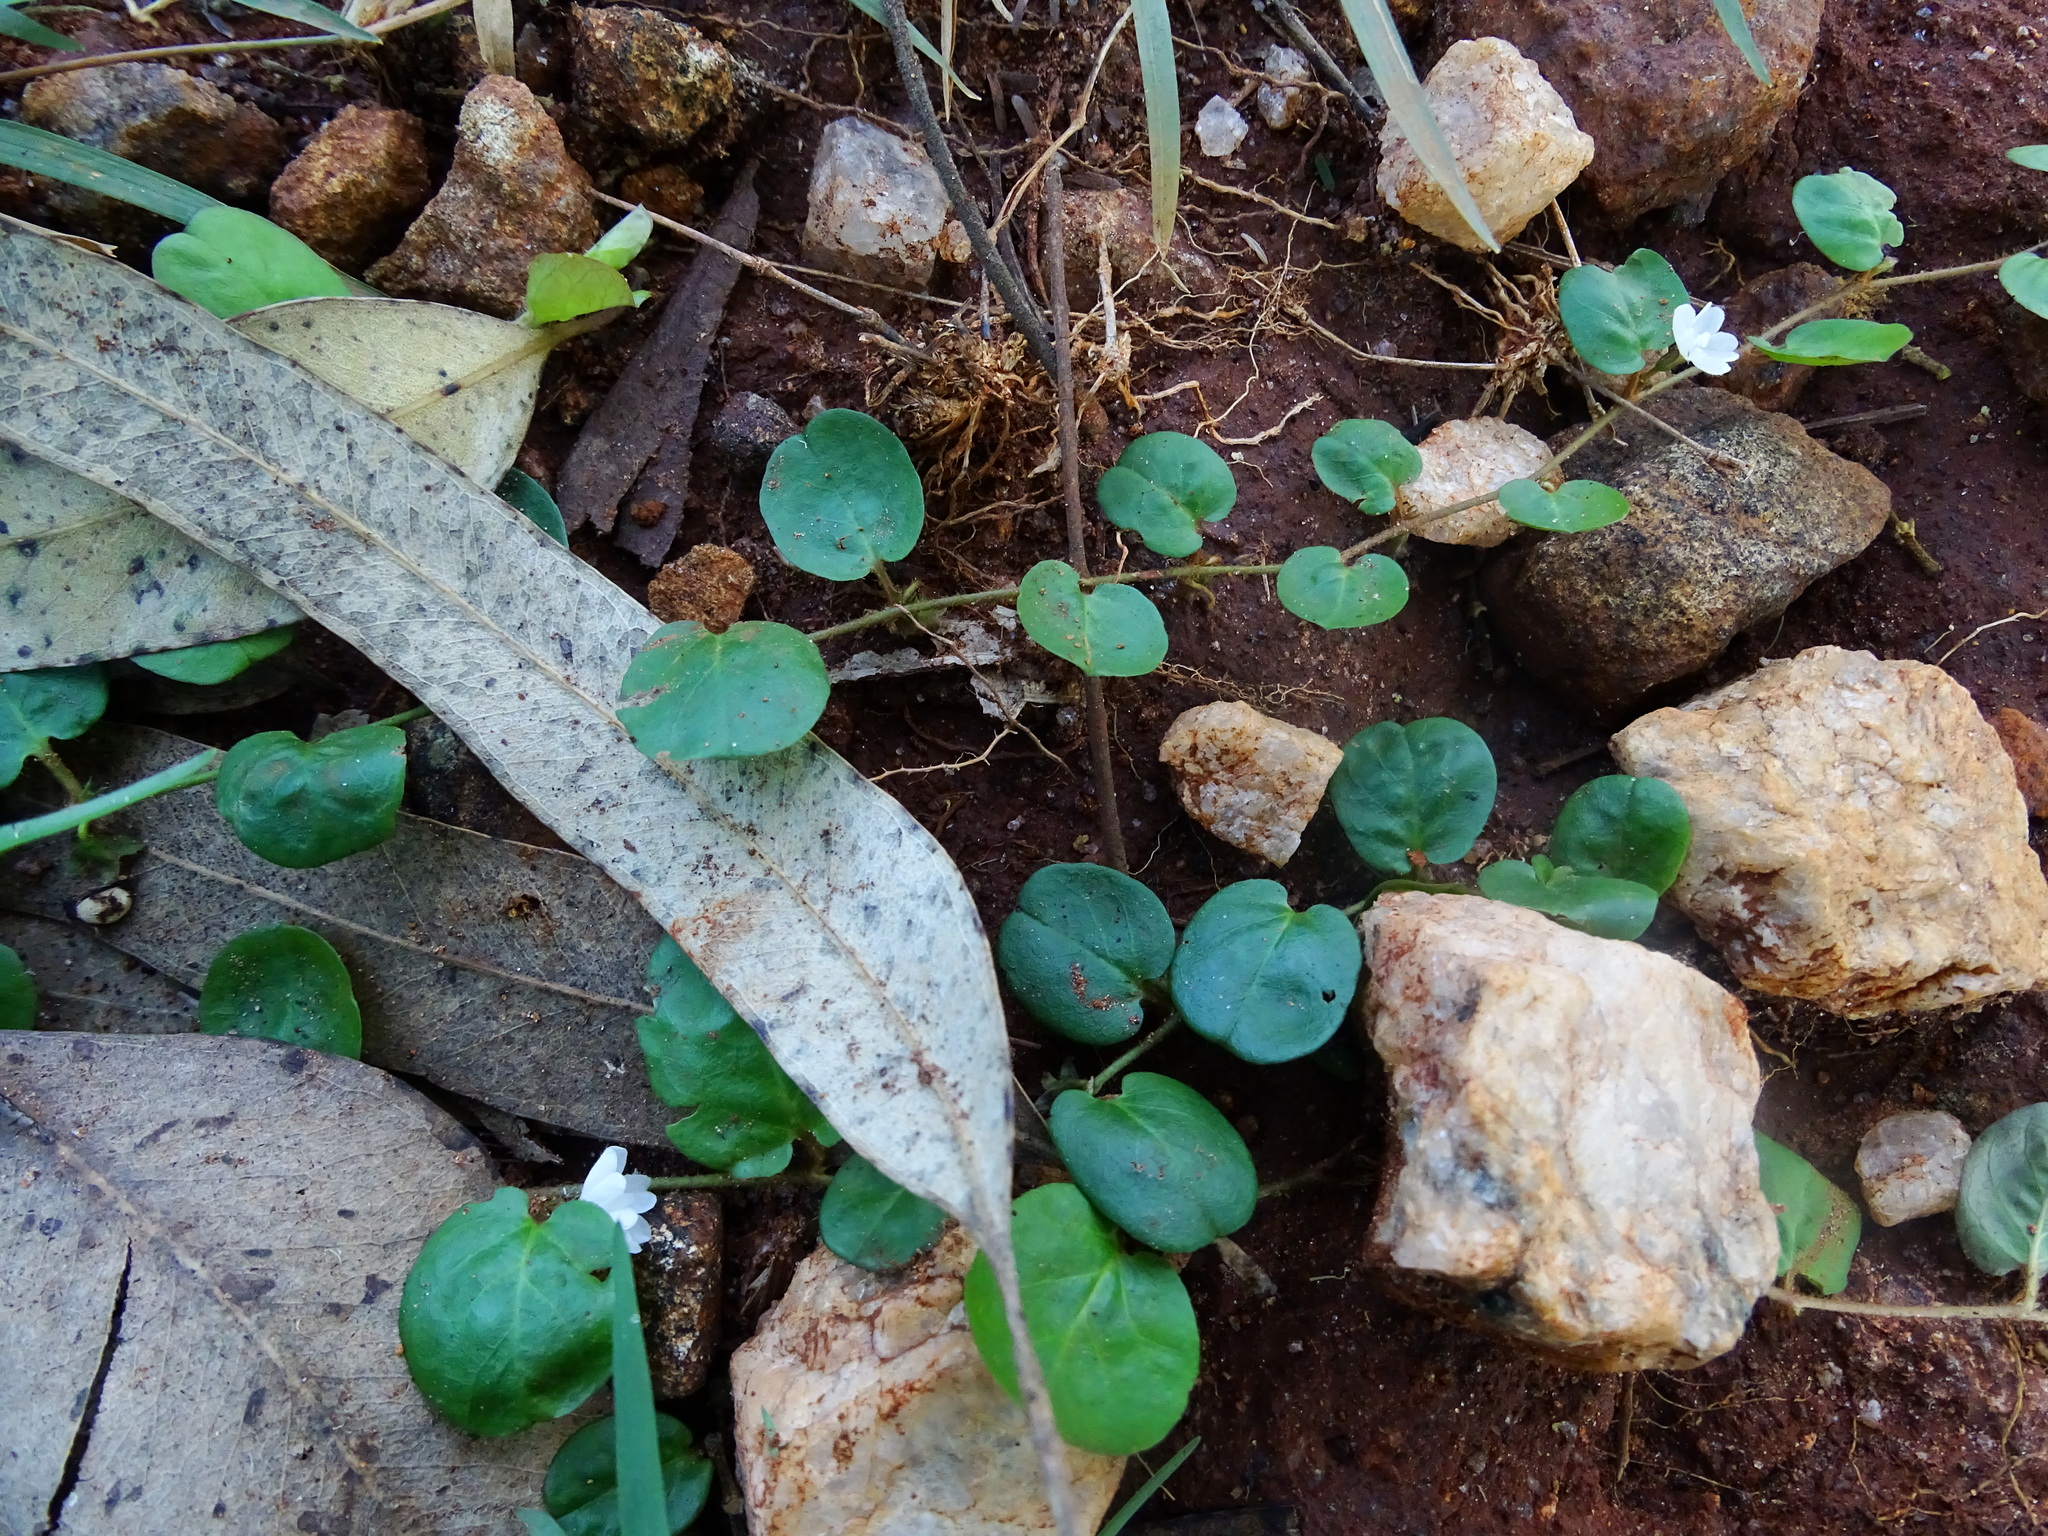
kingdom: Plantae
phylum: Tracheophyta
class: Magnoliopsida
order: Solanales
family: Convolvulaceae
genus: Evolvulus
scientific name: Evolvulus nummularius
